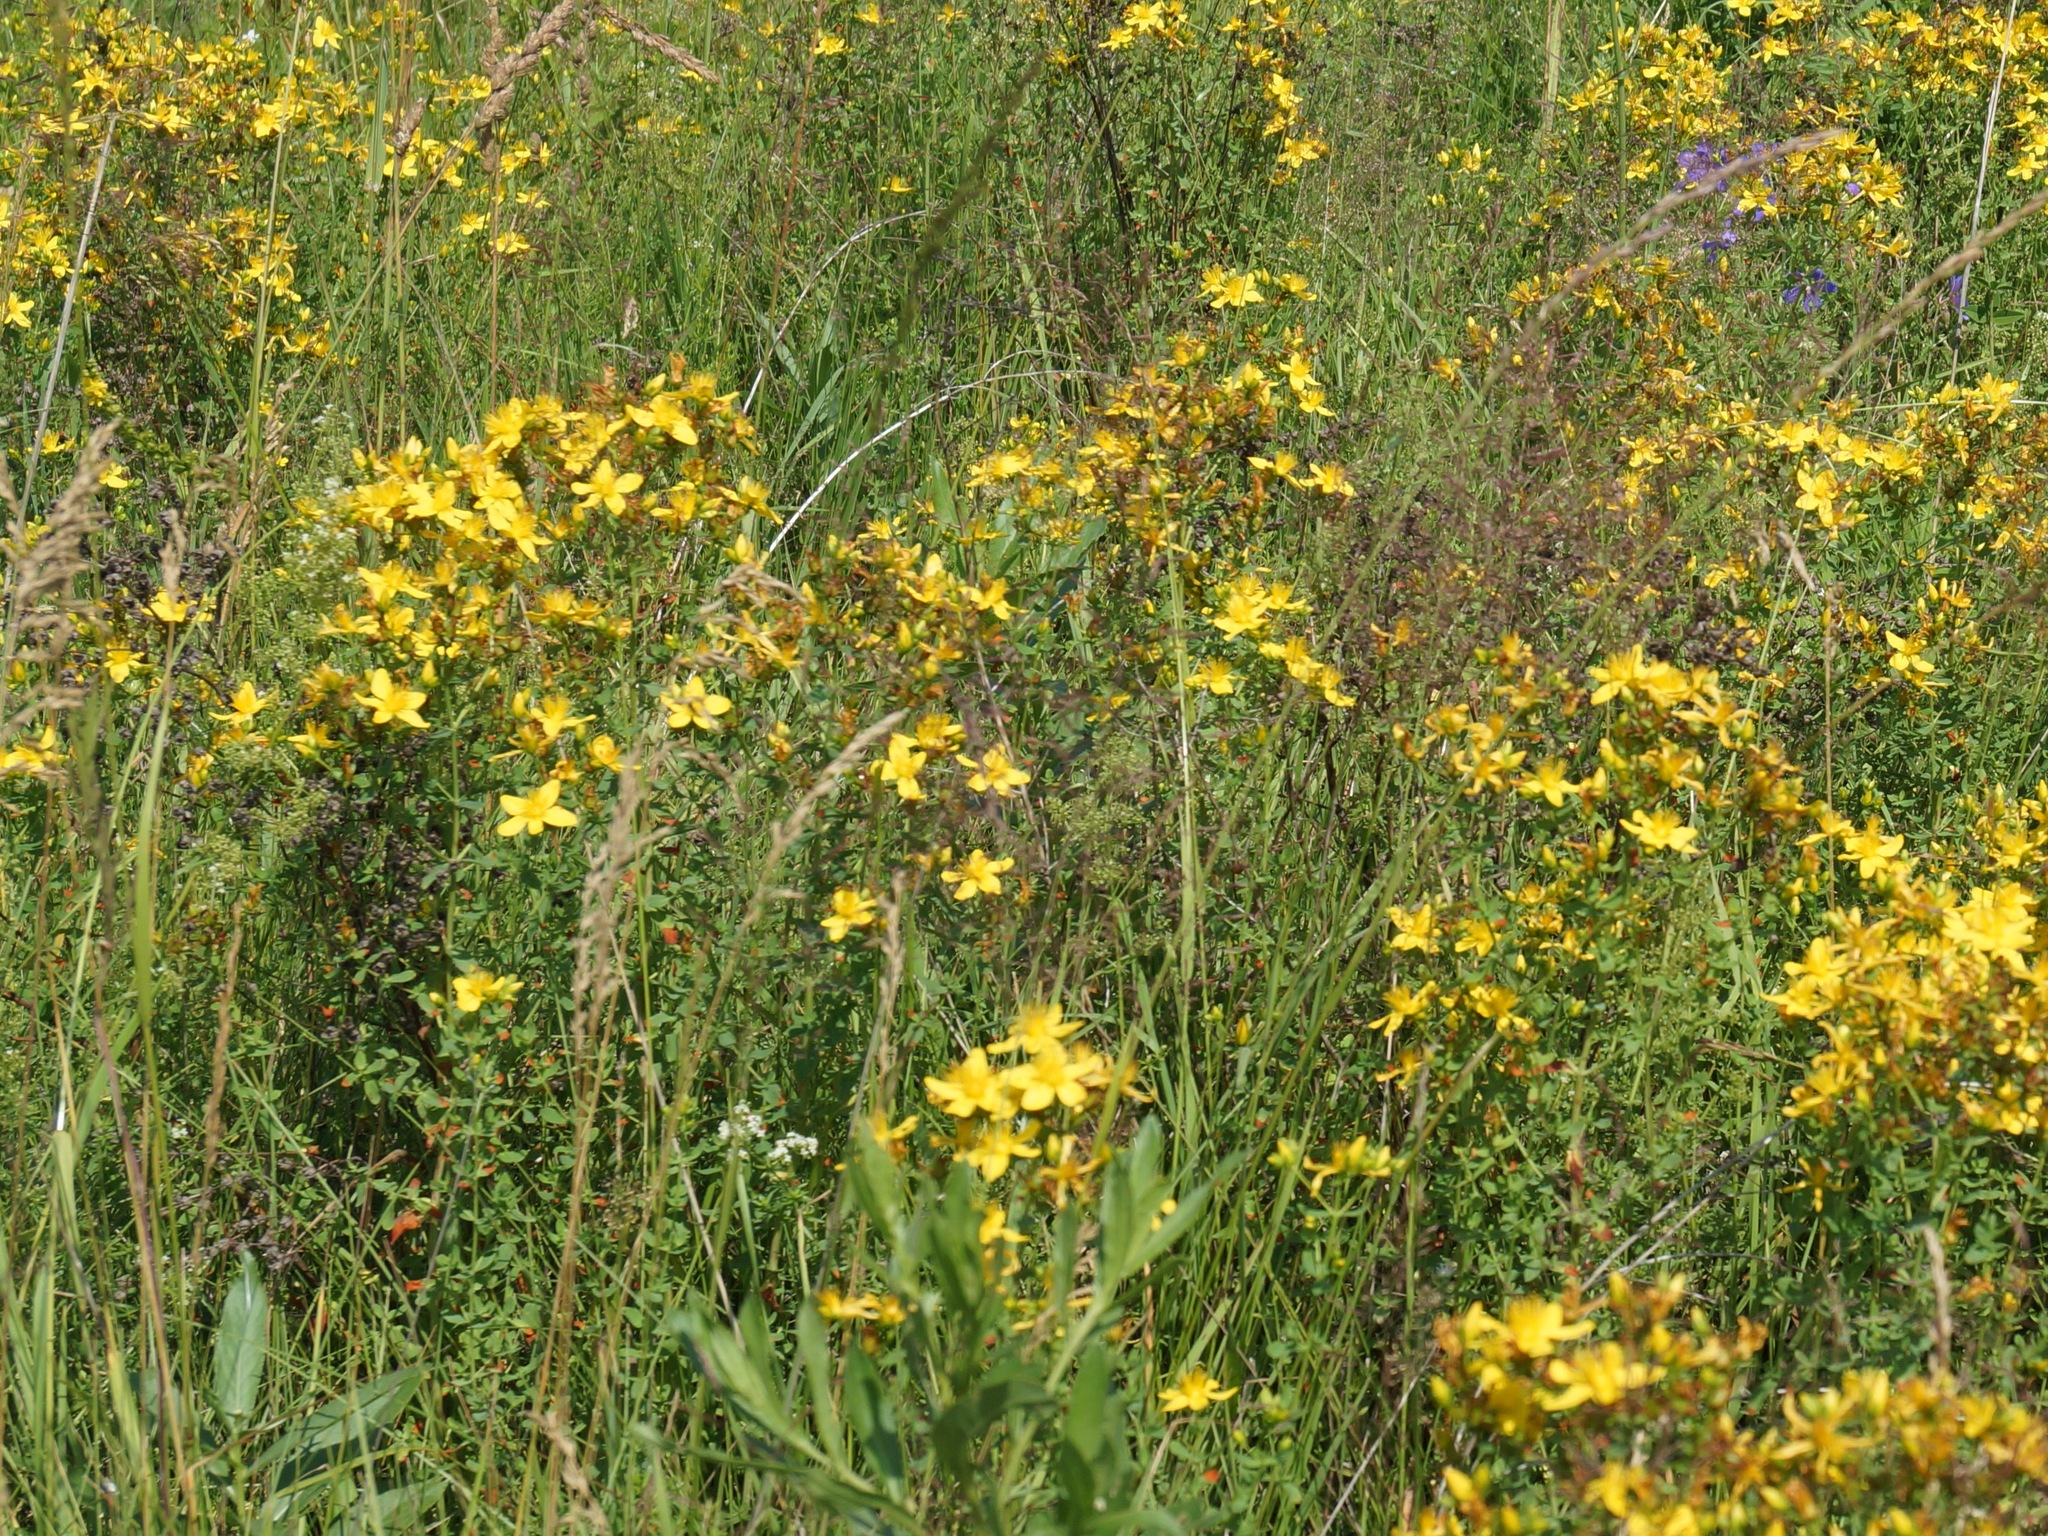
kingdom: Plantae
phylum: Tracheophyta
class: Magnoliopsida
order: Malpighiales
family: Hypericaceae
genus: Hypericum
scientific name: Hypericum perforatum
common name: Common st. johnswort
